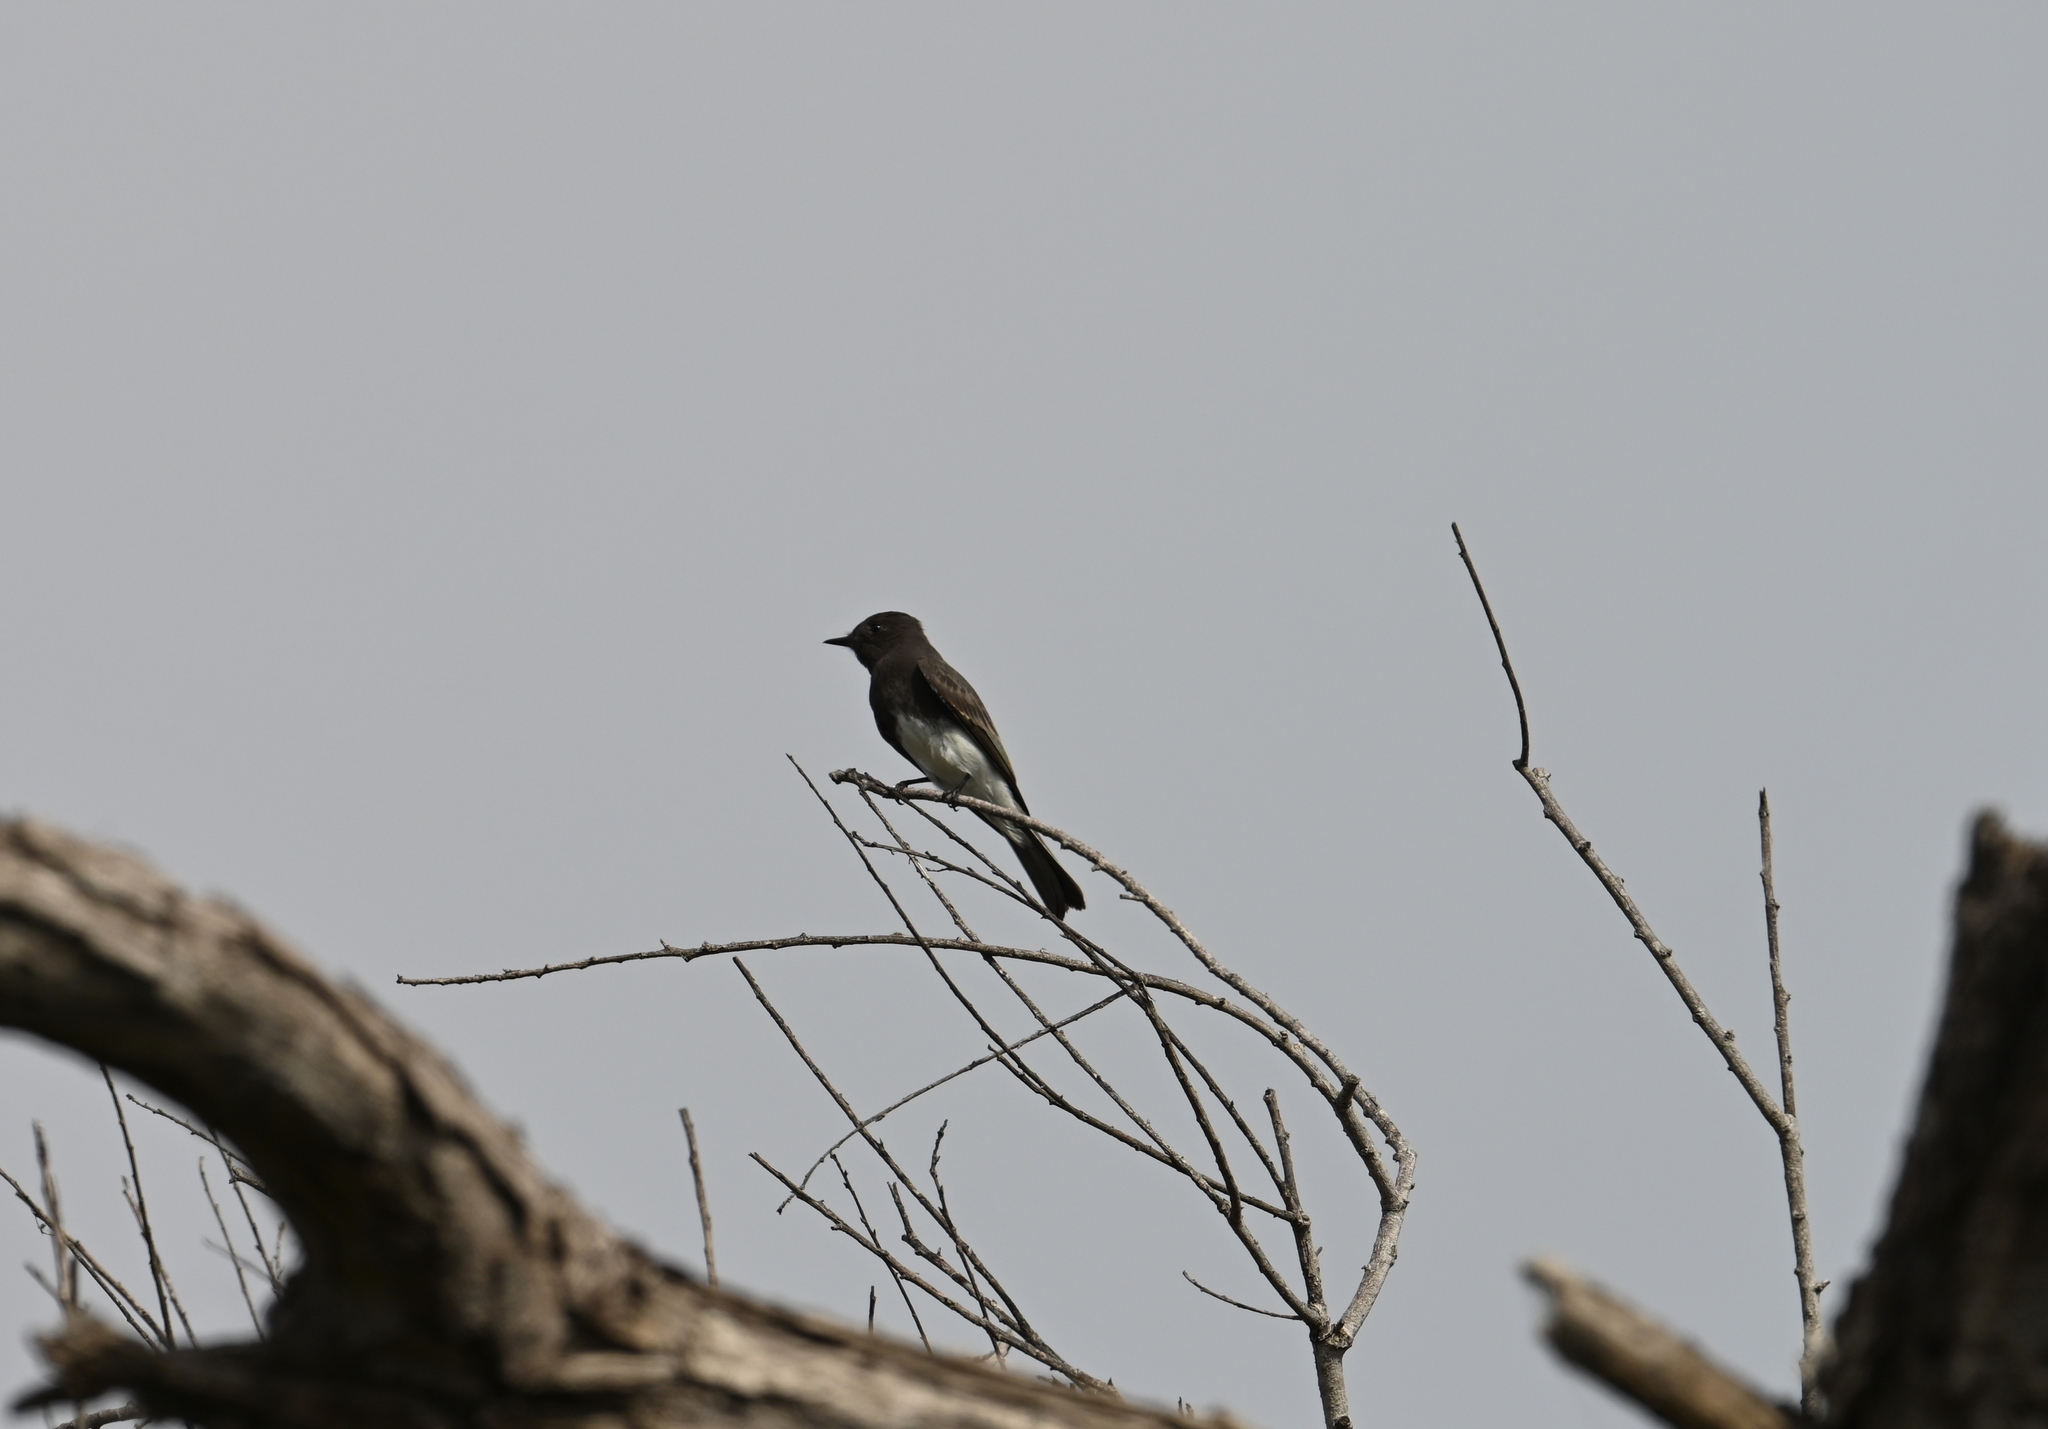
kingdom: Animalia
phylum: Chordata
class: Aves
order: Passeriformes
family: Tyrannidae
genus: Sayornis
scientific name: Sayornis nigricans
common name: Black phoebe
